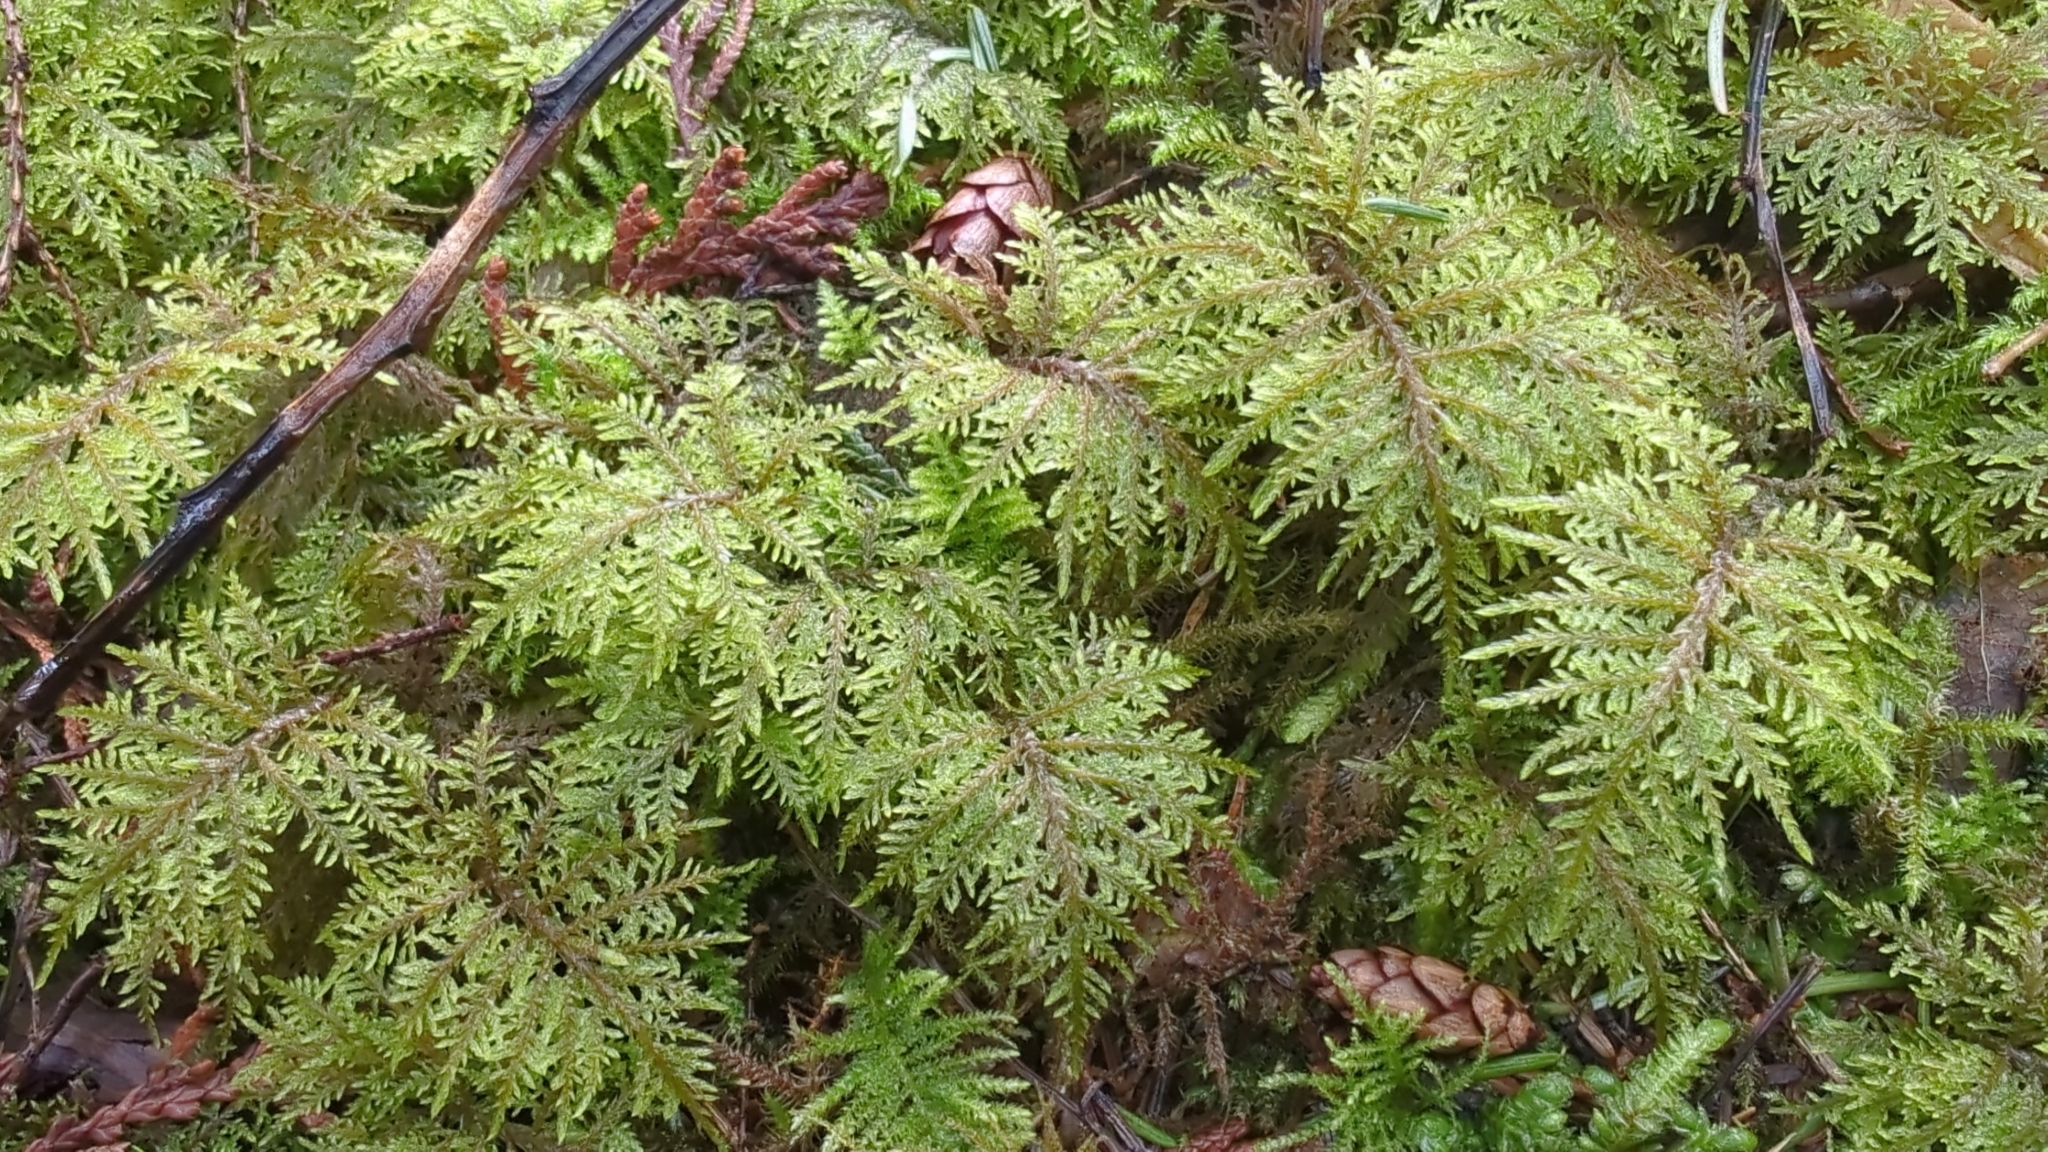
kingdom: Plantae
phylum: Bryophyta
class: Bryopsida
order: Hypnales
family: Hylocomiaceae
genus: Hylocomium
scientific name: Hylocomium splendens
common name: Stairstep moss
